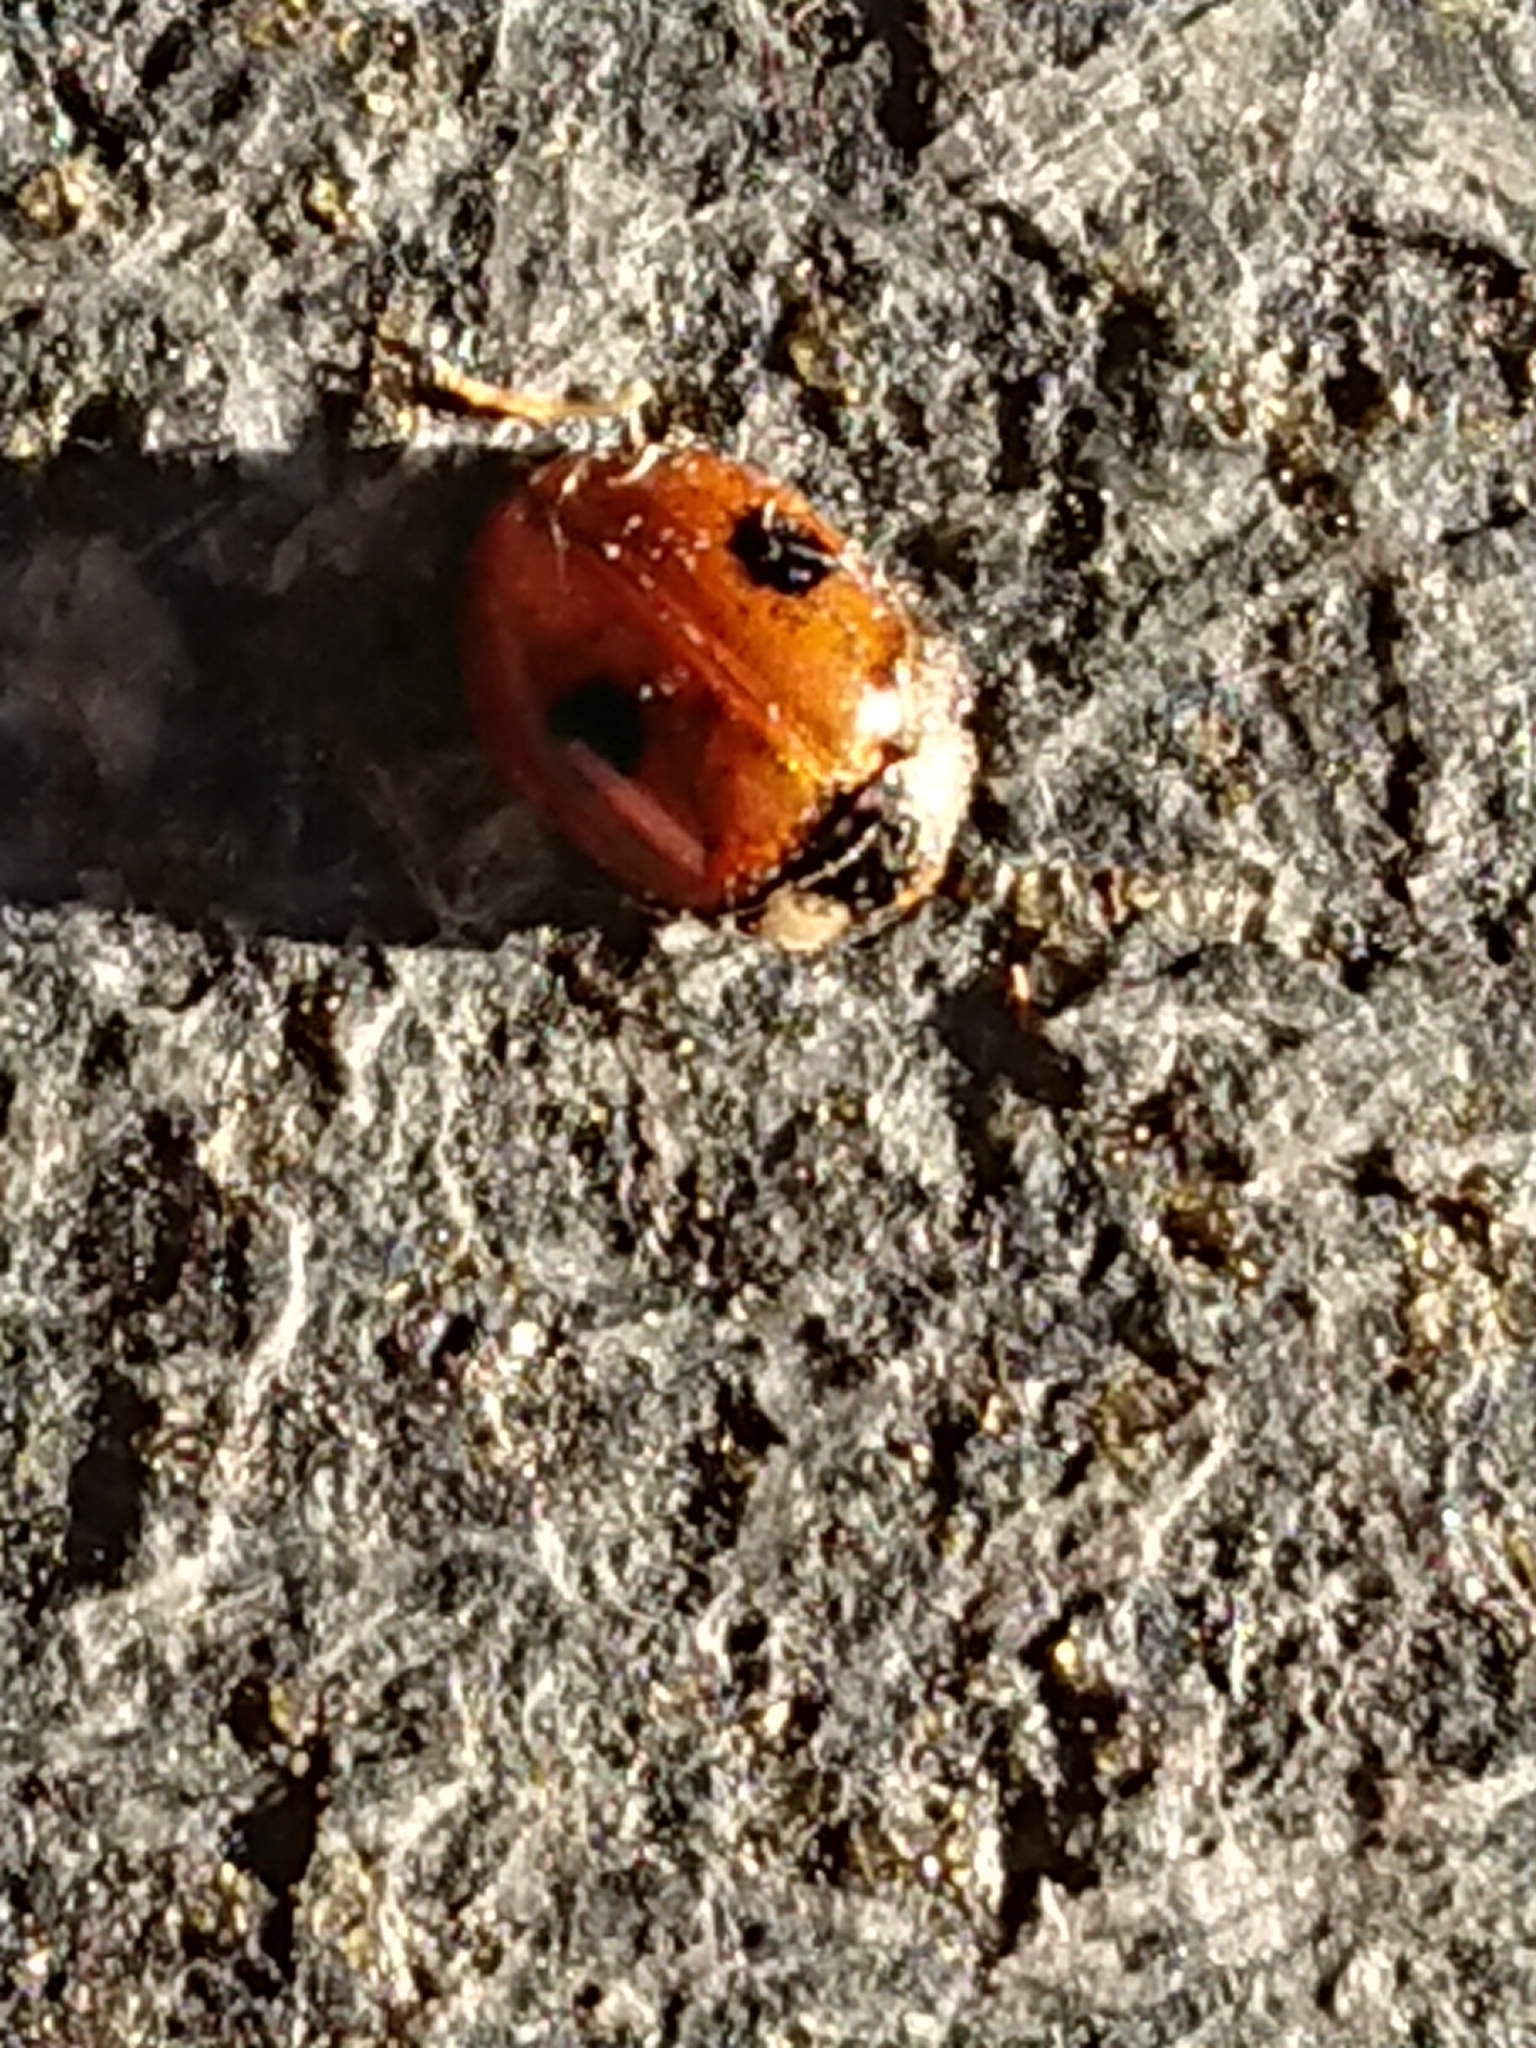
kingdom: Animalia
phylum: Arthropoda
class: Insecta
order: Coleoptera
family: Coccinellidae
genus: Adalia
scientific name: Adalia bipunctata
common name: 2-spot ladybird
